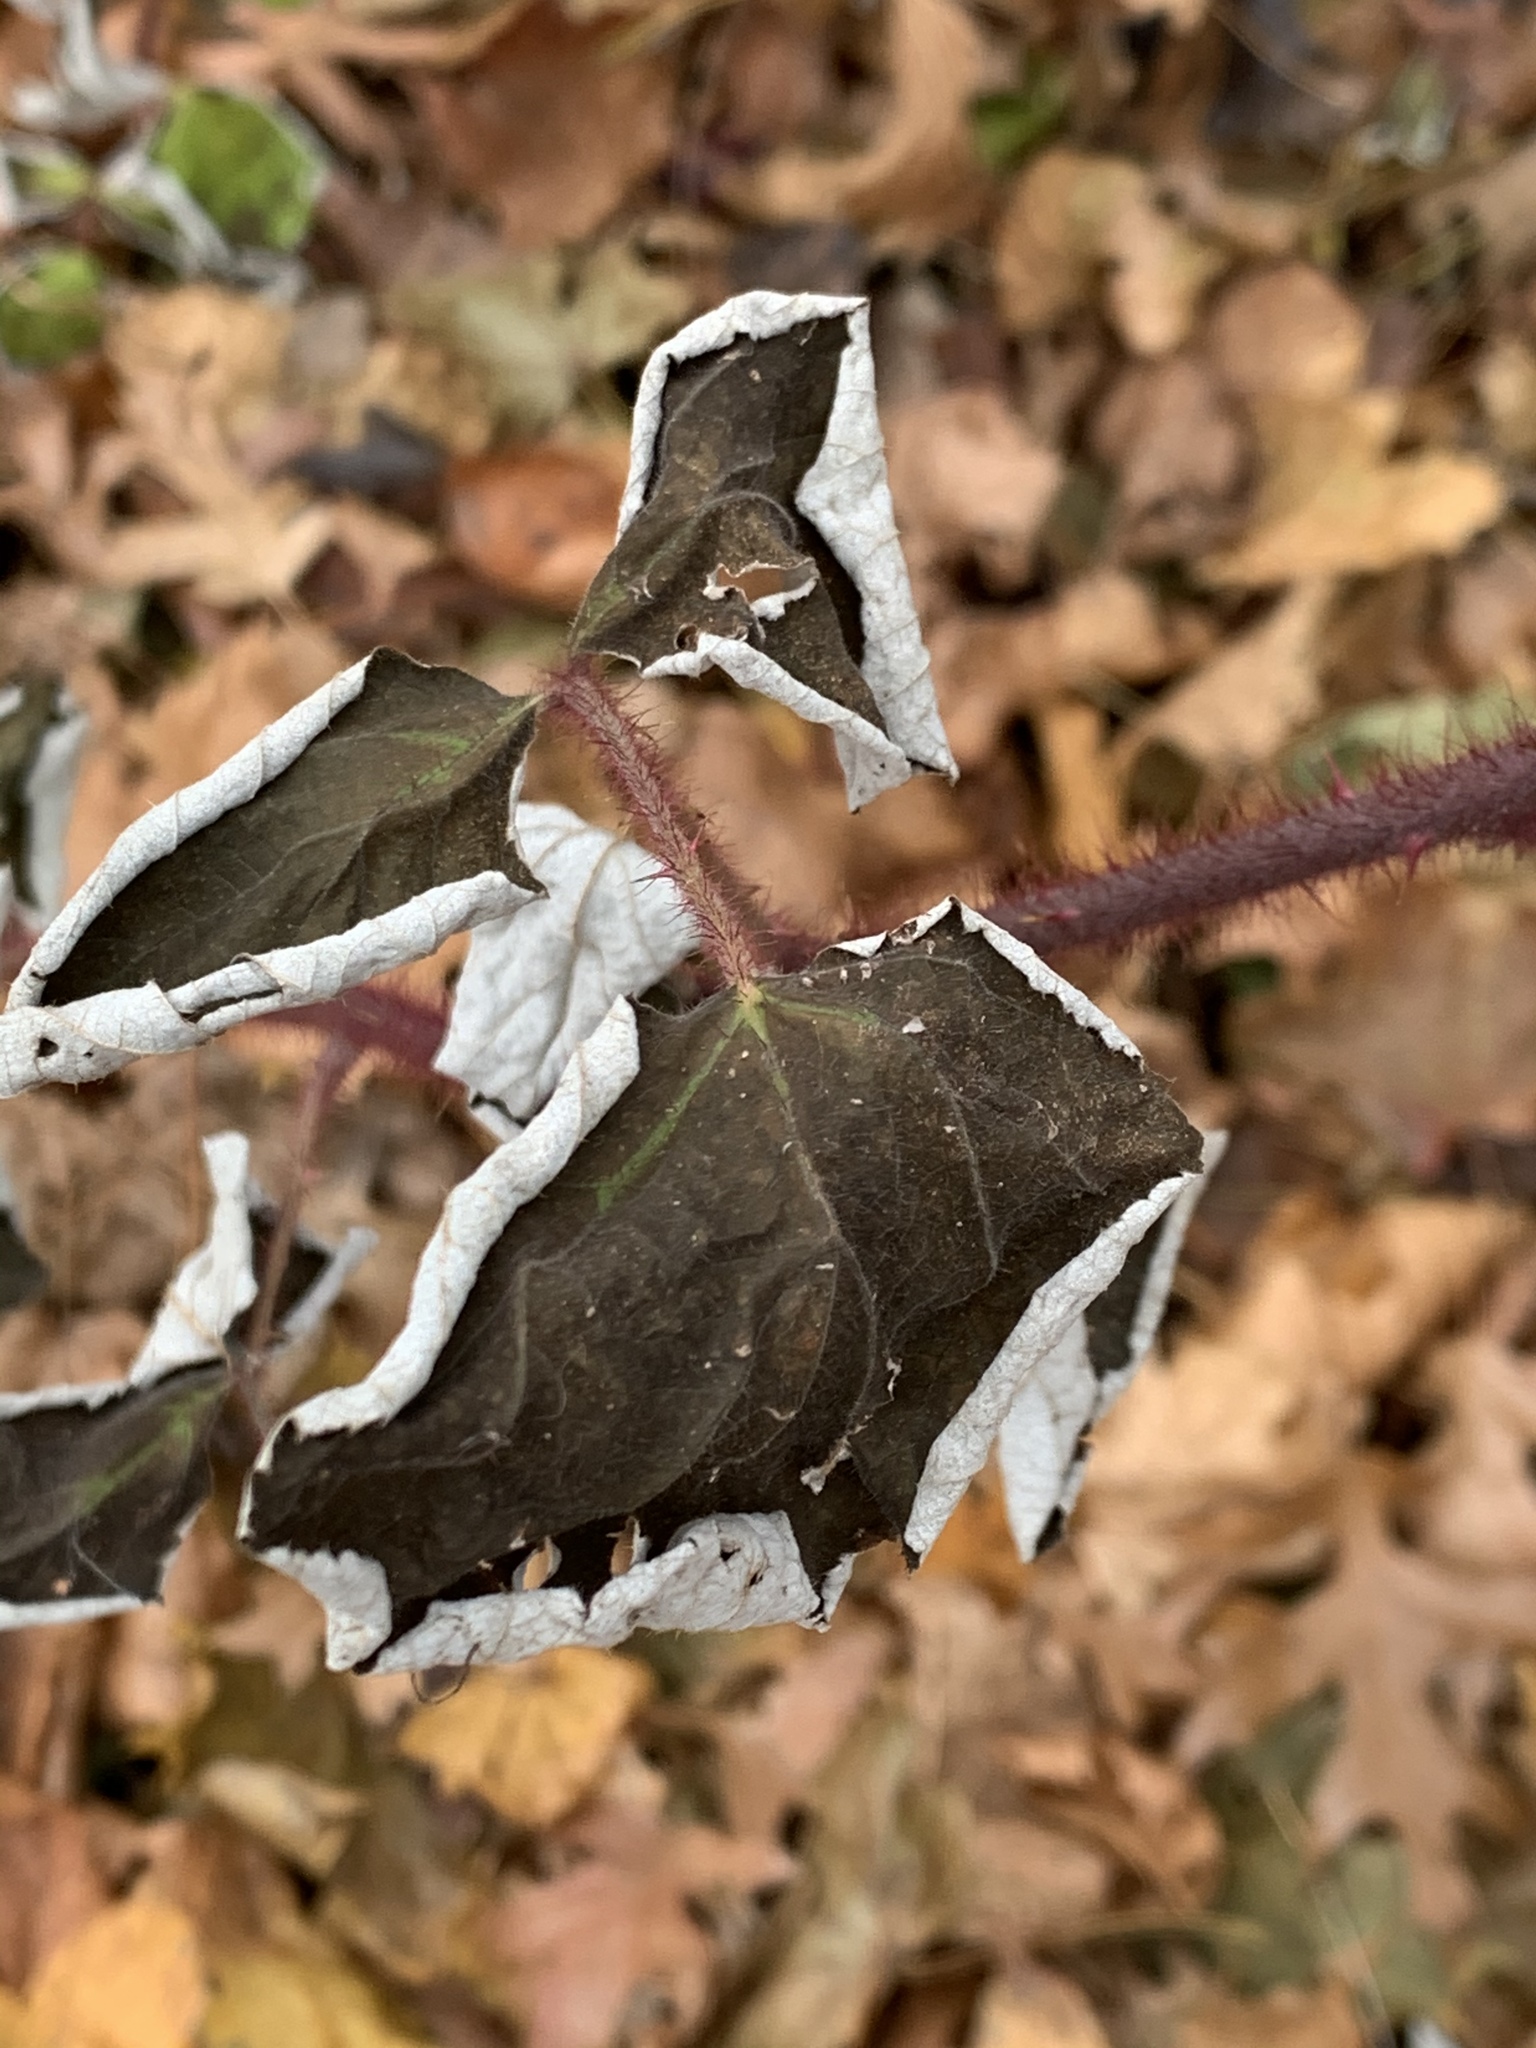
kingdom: Plantae
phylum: Tracheophyta
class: Magnoliopsida
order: Rosales
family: Rosaceae
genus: Rubus
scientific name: Rubus phoenicolasius
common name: Japanese wineberry
